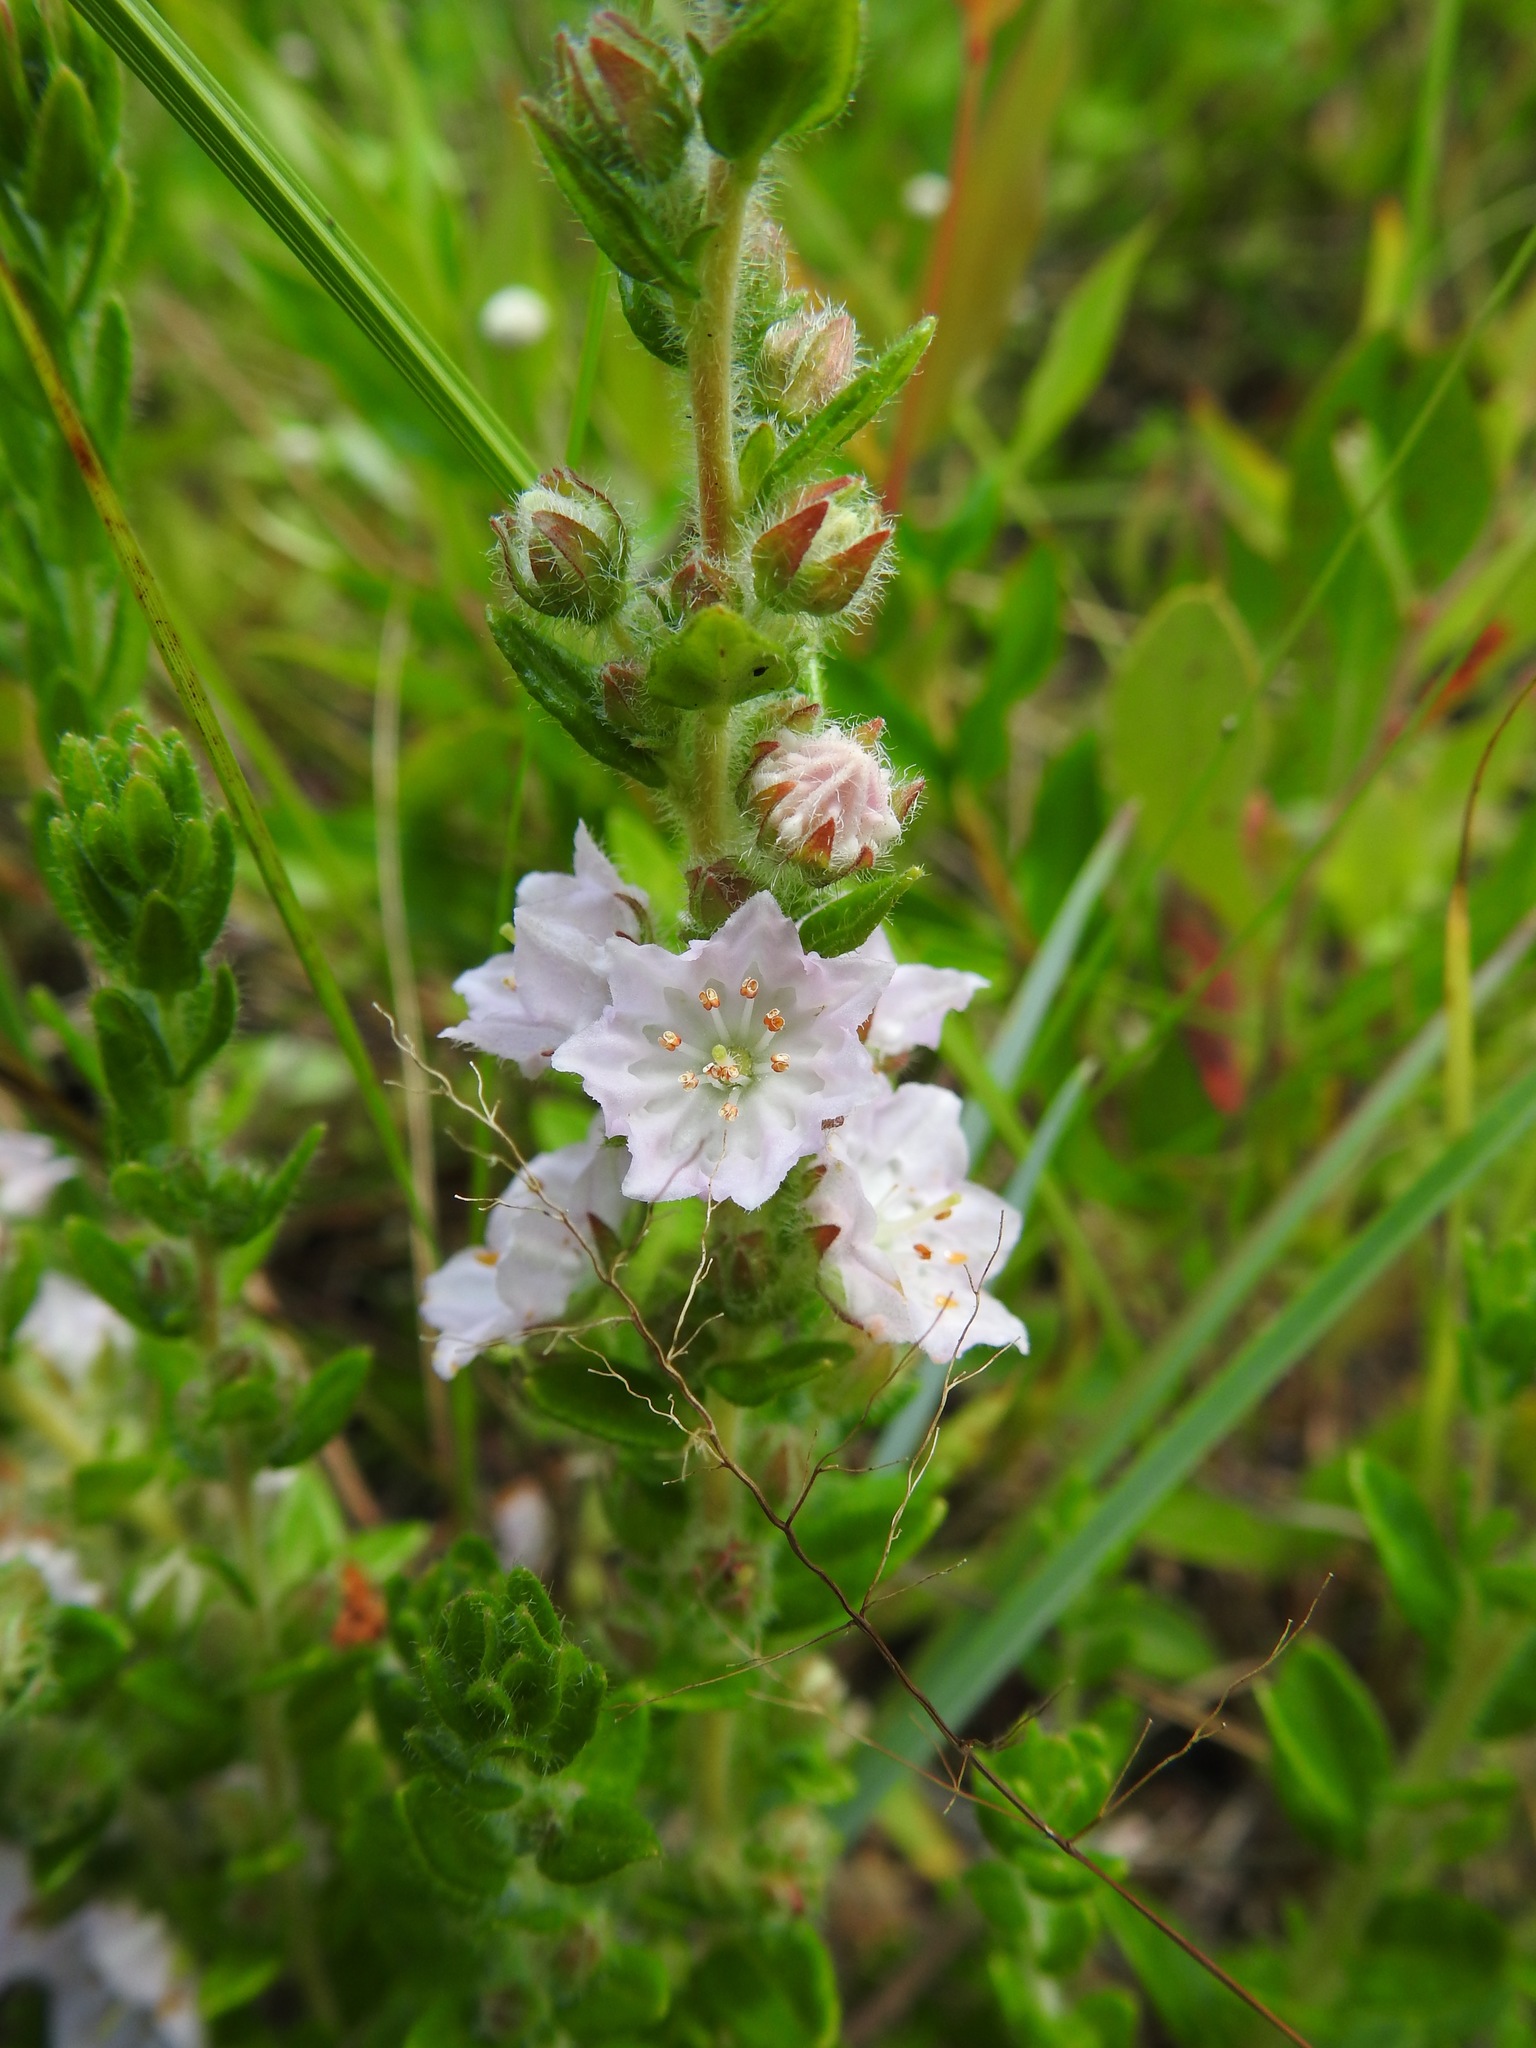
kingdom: Plantae
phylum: Tracheophyta
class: Magnoliopsida
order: Ericales
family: Ericaceae
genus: Kalmia
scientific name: Kalmia hirsuta
